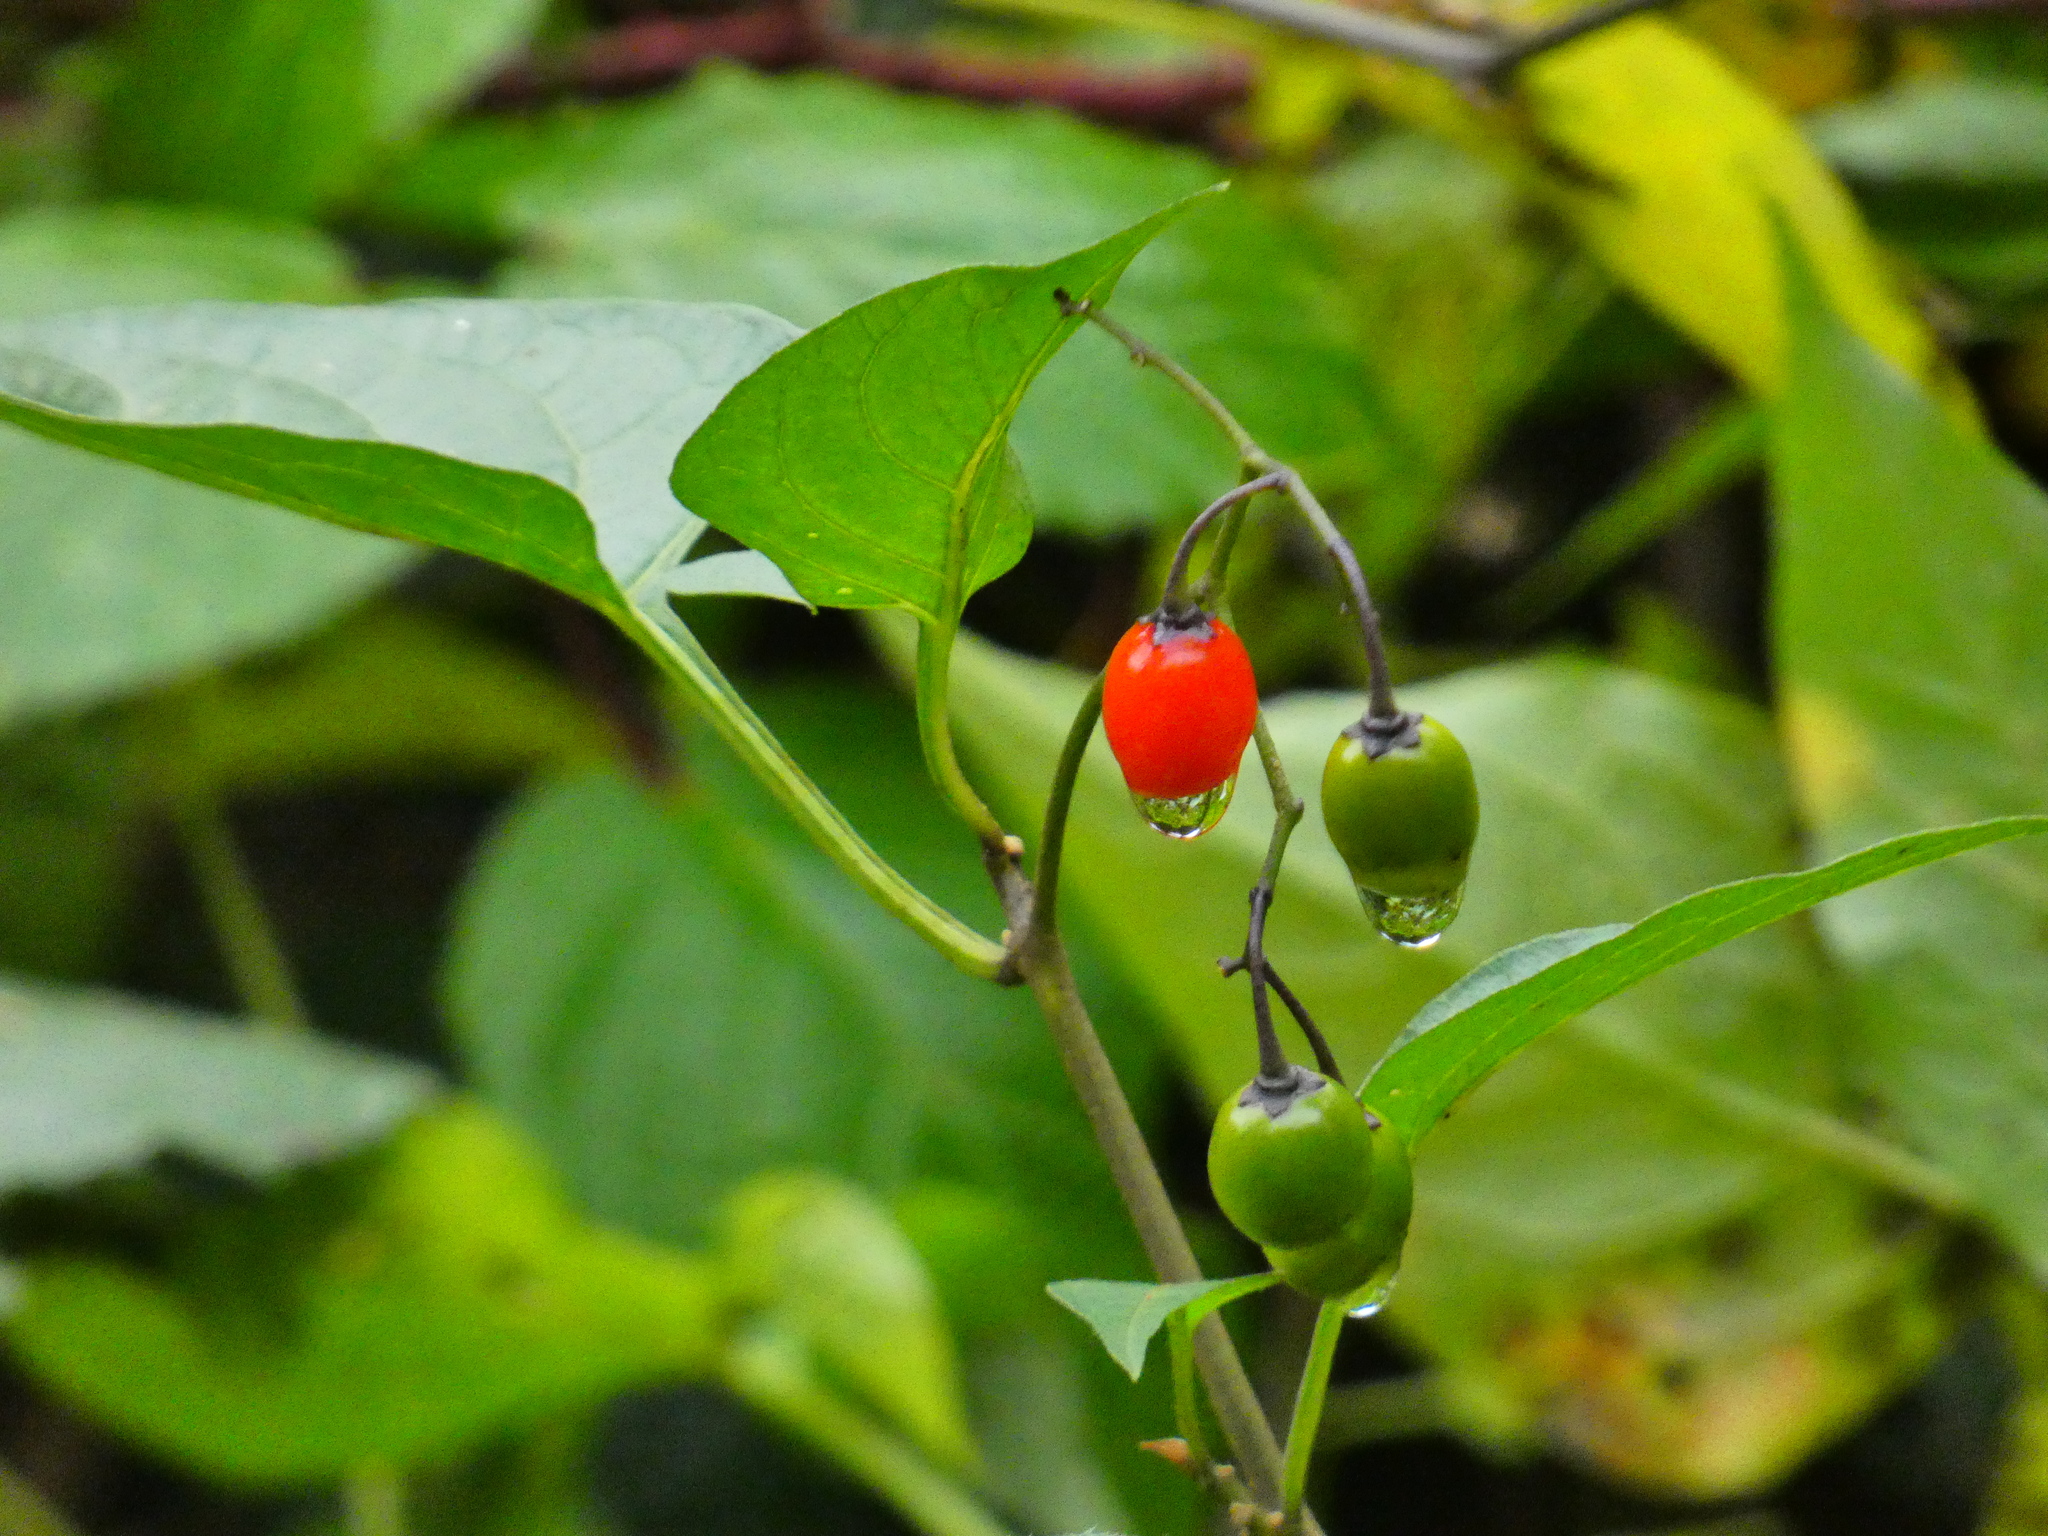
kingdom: Plantae
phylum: Tracheophyta
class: Magnoliopsida
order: Solanales
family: Solanaceae
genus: Solanum
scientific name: Solanum dulcamara
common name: Climbing nightshade
